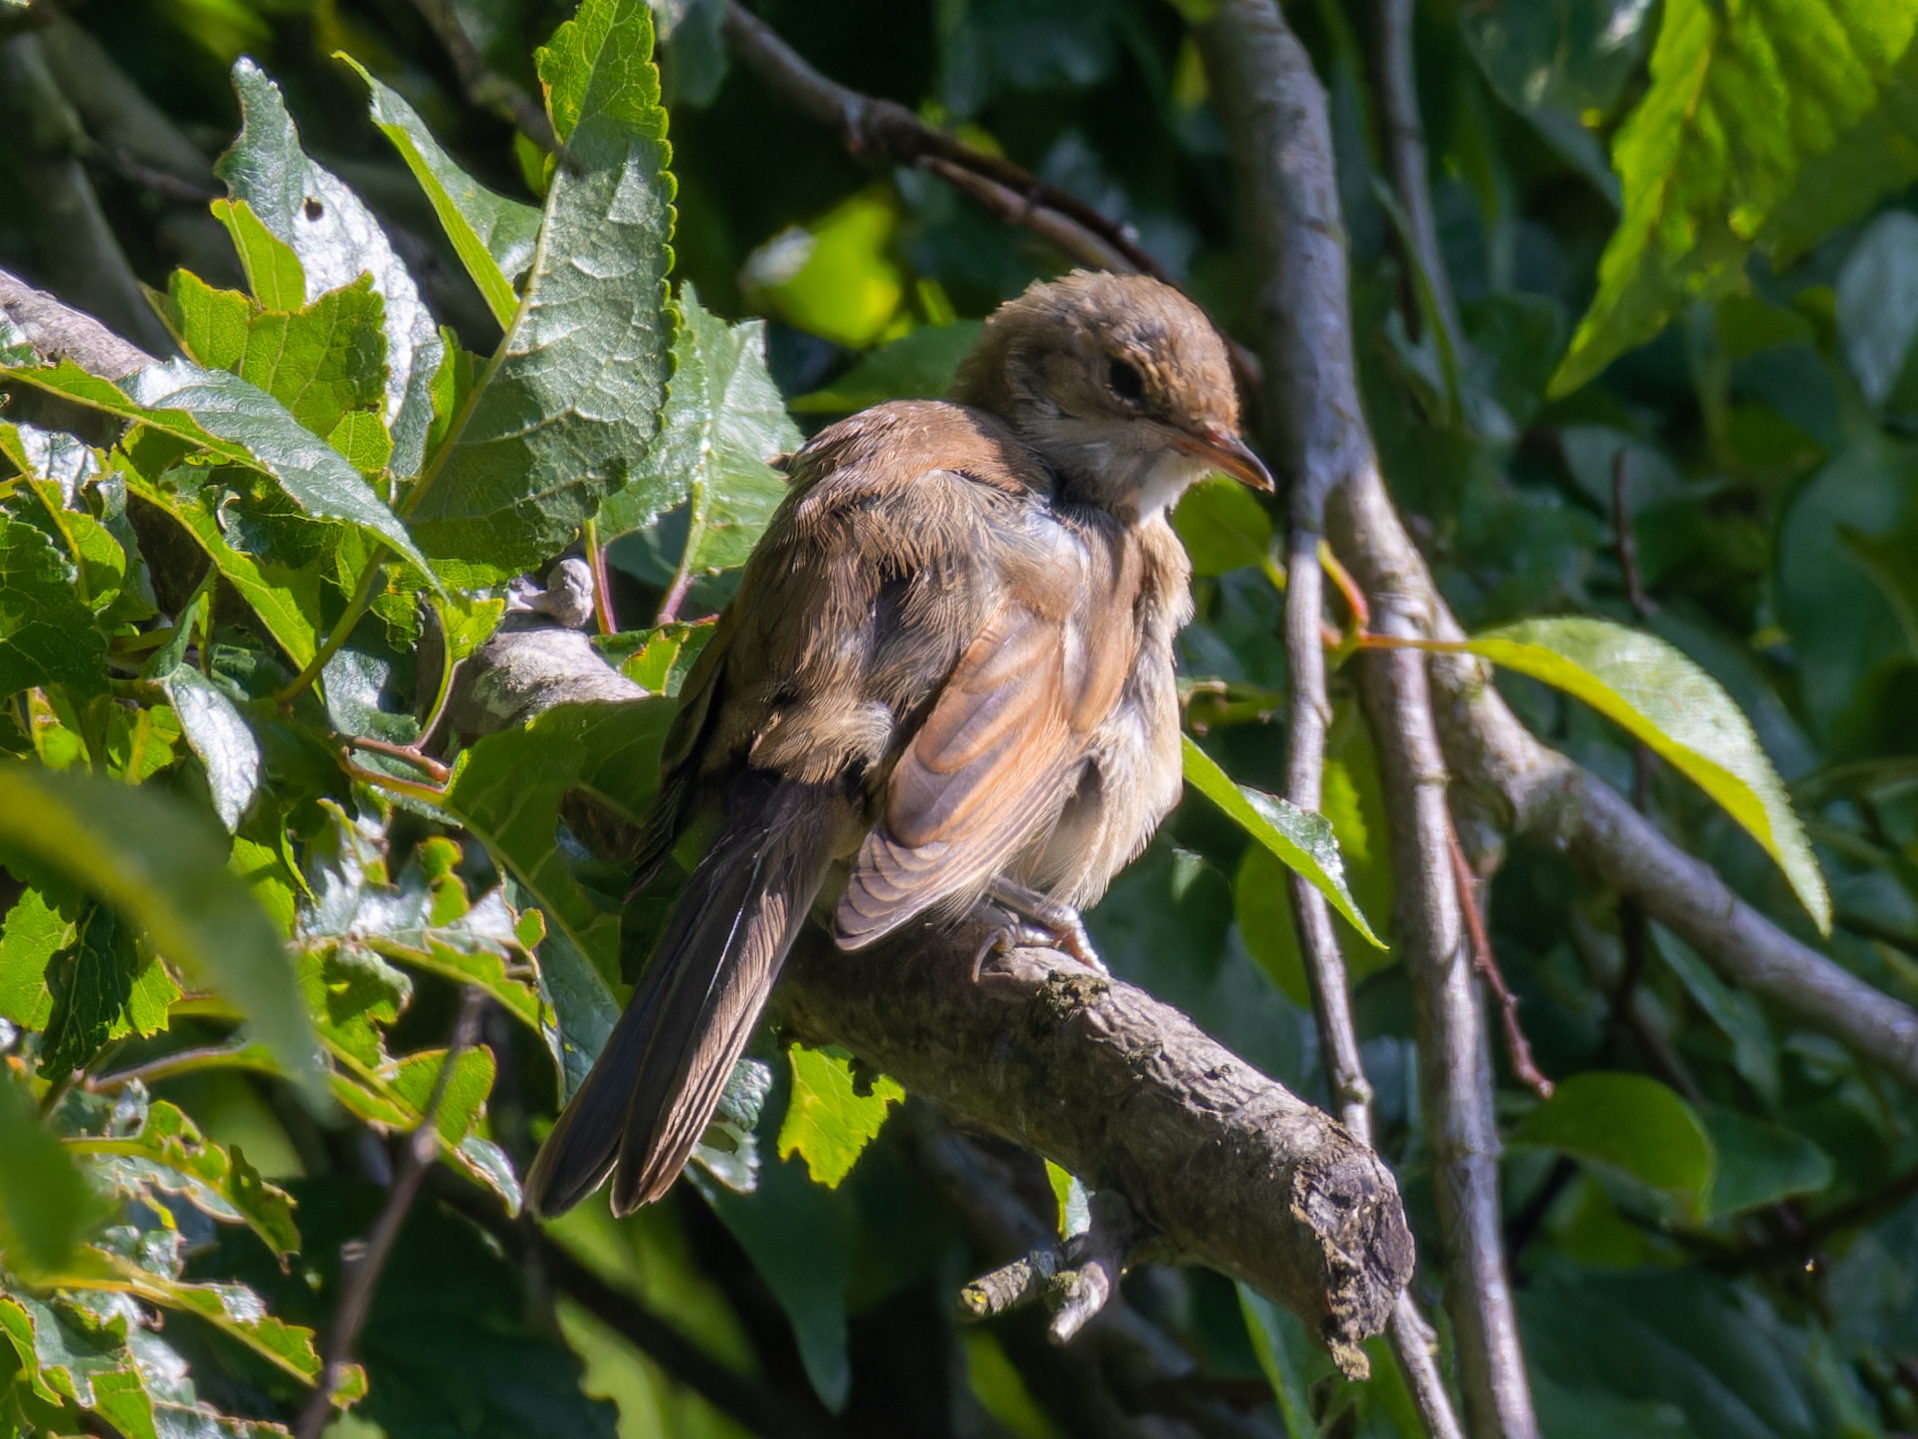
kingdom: Animalia
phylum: Chordata
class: Aves
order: Passeriformes
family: Sylviidae
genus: Sylvia
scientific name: Sylvia communis
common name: Common whitethroat
